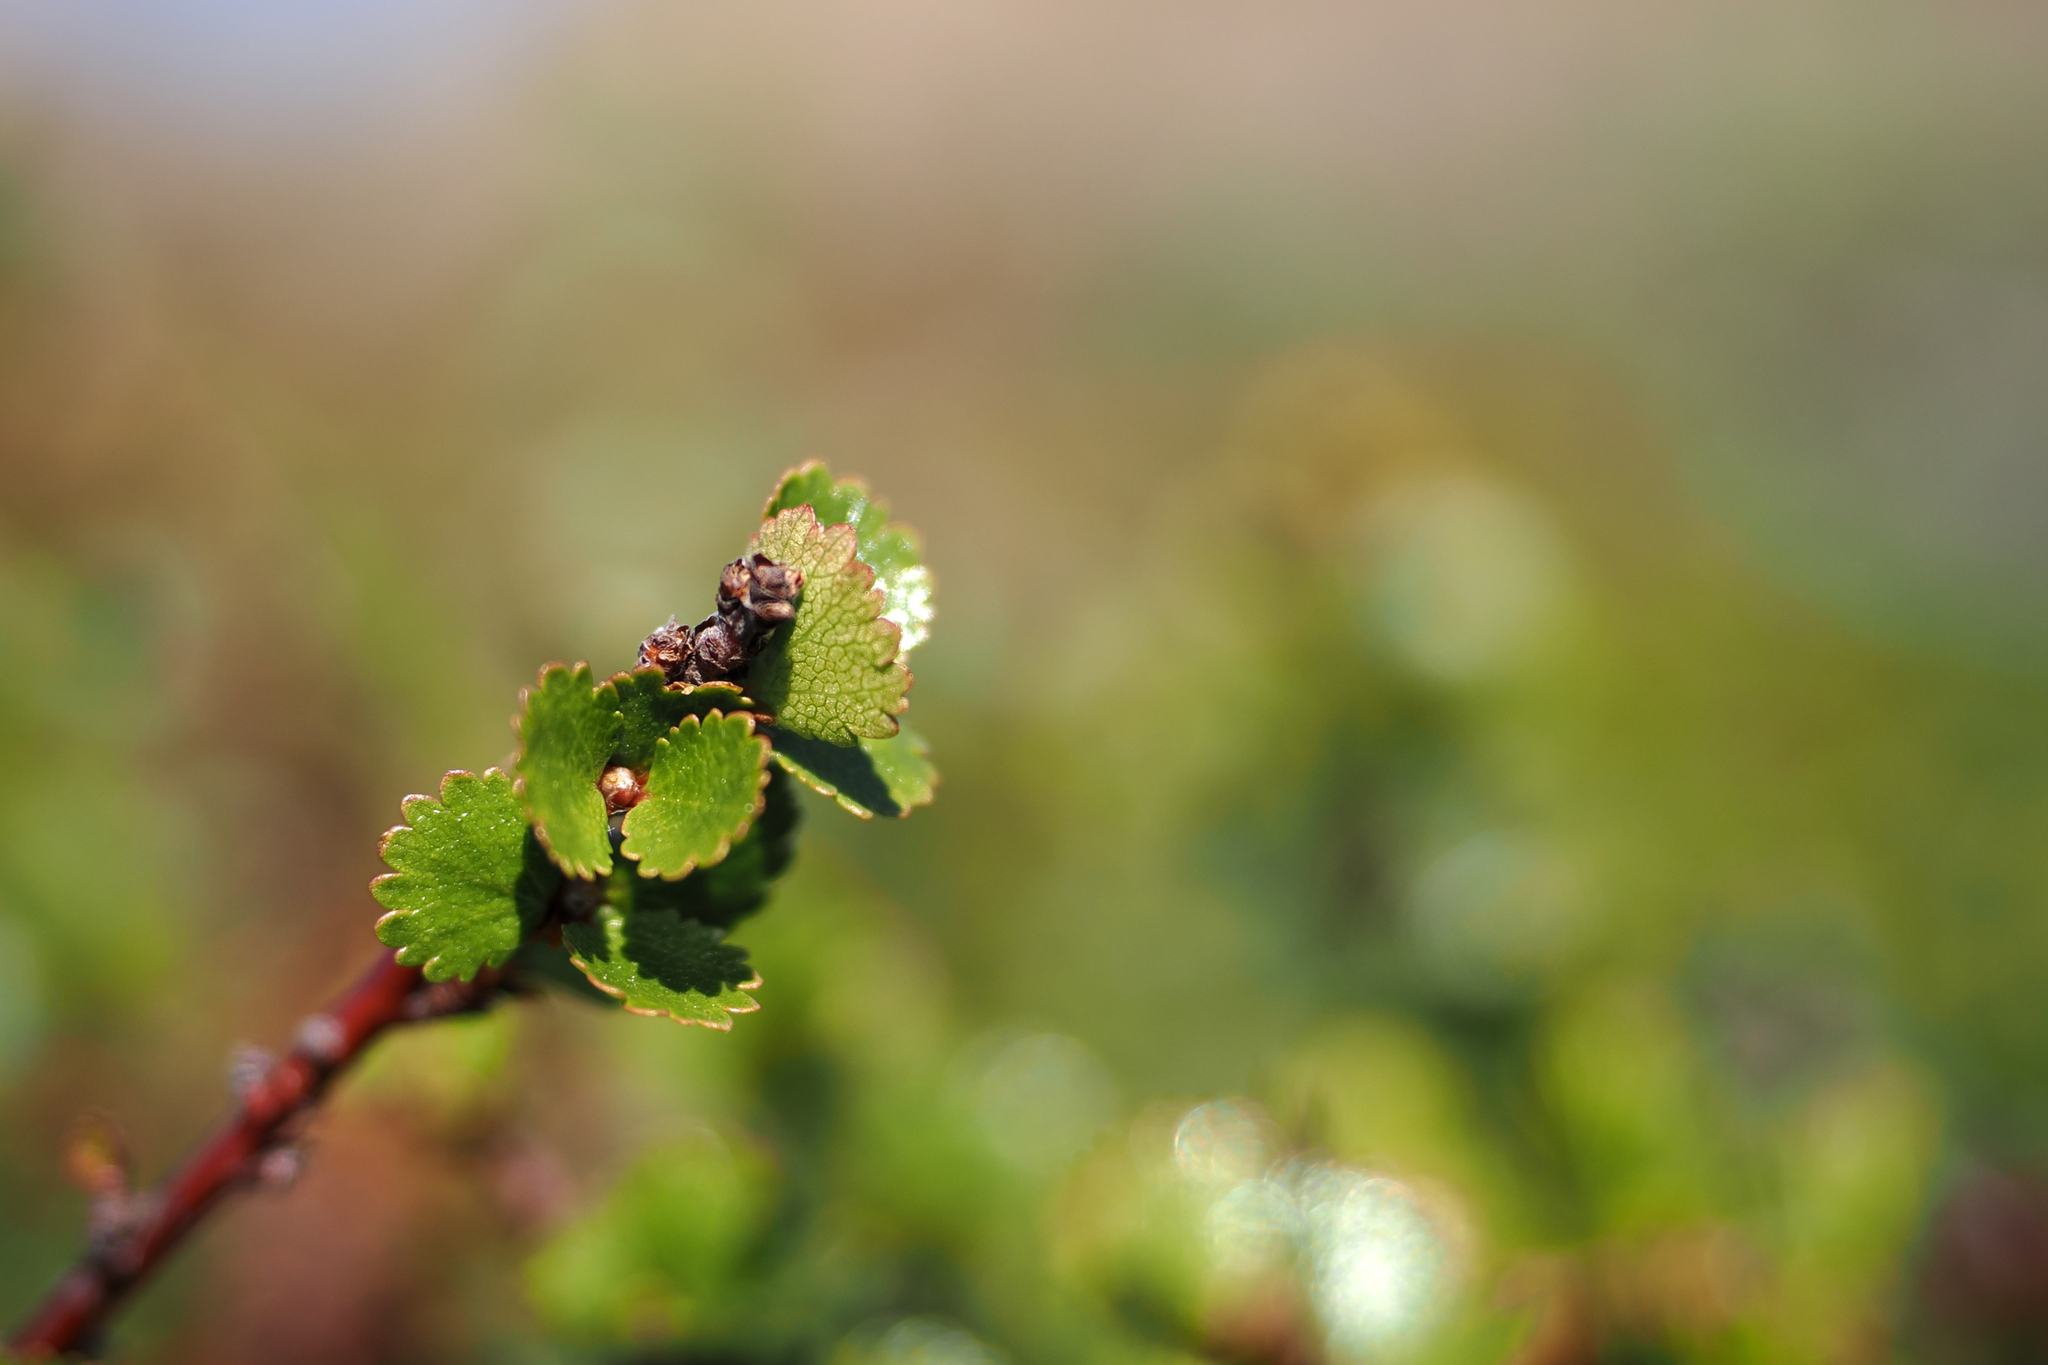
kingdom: Plantae
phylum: Tracheophyta
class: Magnoliopsida
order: Fagales
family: Betulaceae
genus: Betula
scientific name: Betula nana
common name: Arctic dwarf birch
